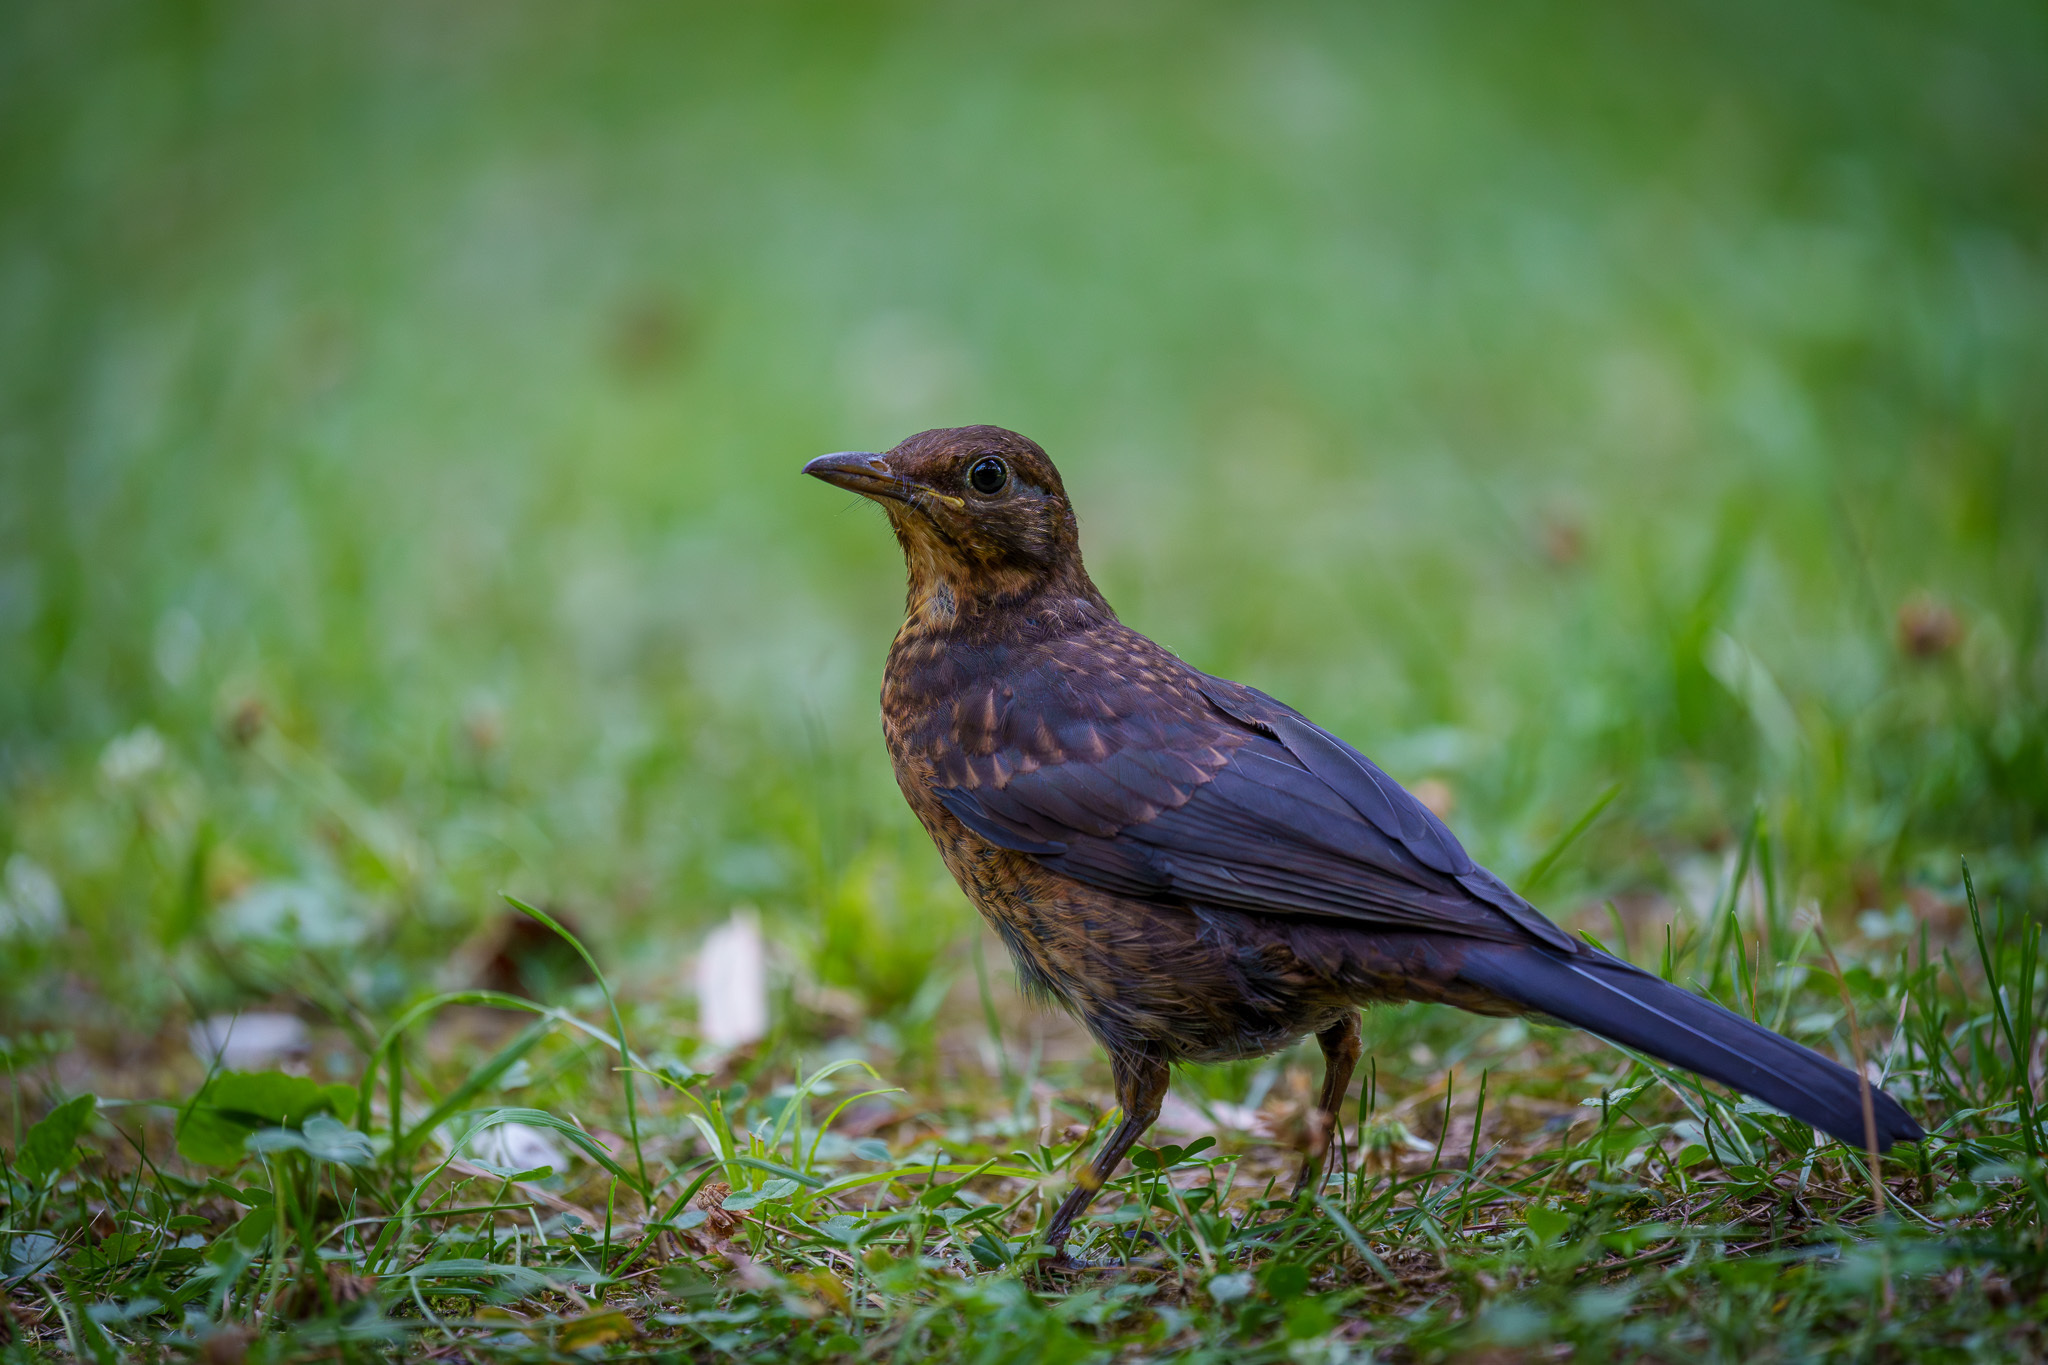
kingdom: Animalia
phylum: Chordata
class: Aves
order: Passeriformes
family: Turdidae
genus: Turdus
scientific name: Turdus merula
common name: Common blackbird
